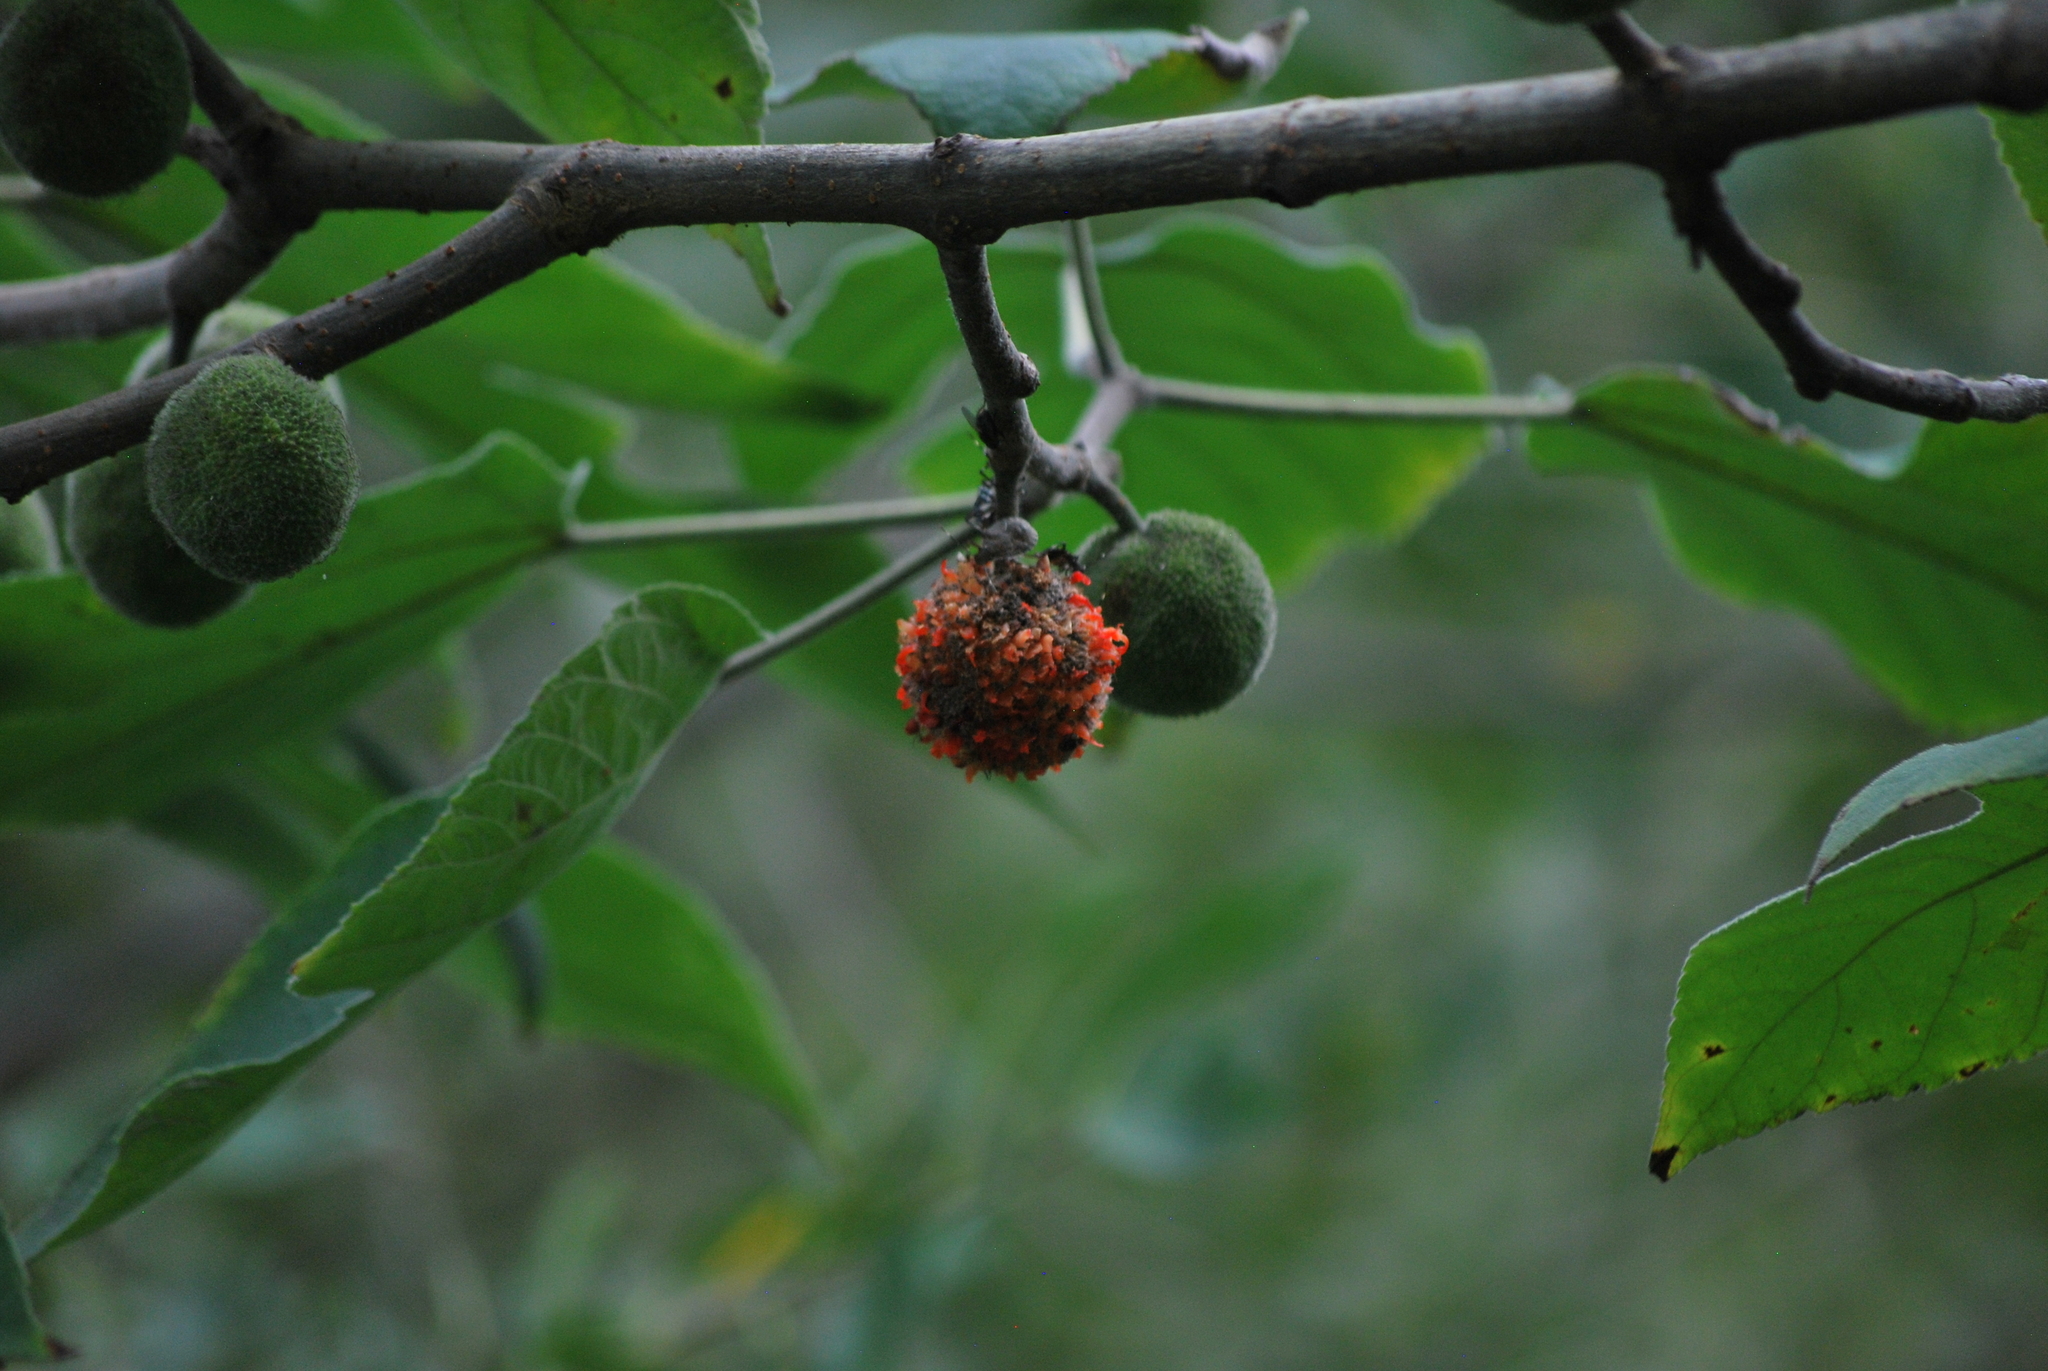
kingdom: Plantae
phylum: Tracheophyta
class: Magnoliopsida
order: Rosales
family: Moraceae
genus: Broussonetia
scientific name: Broussonetia papyrifera
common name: Paper mulberry
